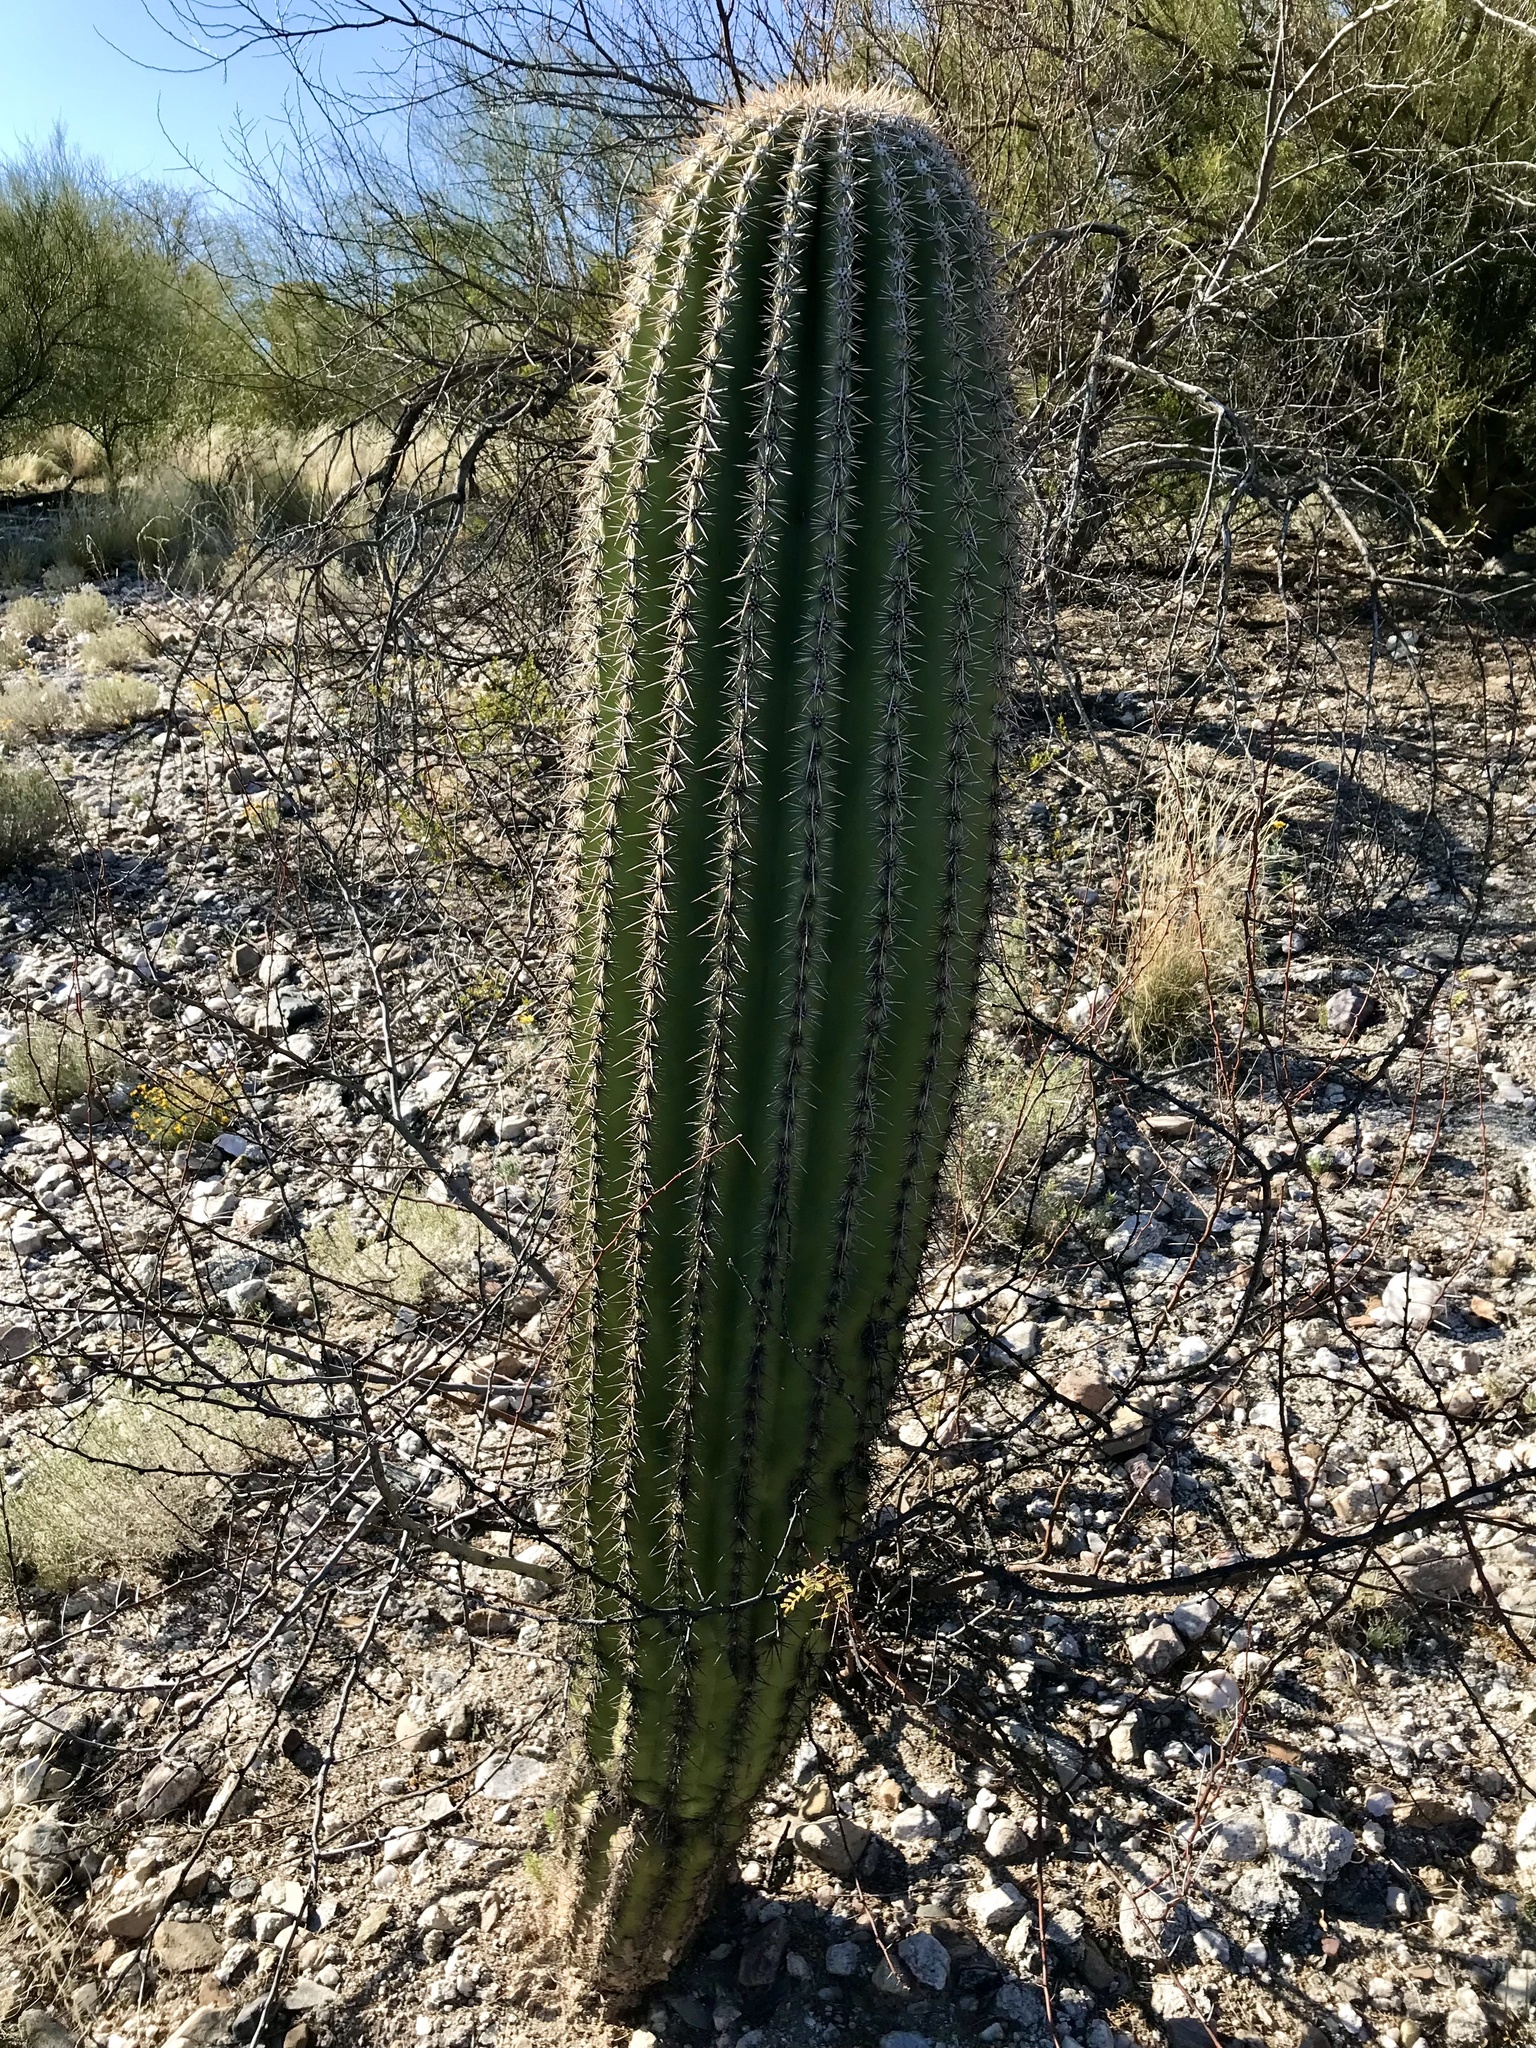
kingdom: Plantae
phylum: Tracheophyta
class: Magnoliopsida
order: Caryophyllales
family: Cactaceae
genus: Carnegiea
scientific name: Carnegiea gigantea
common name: Saguaro
